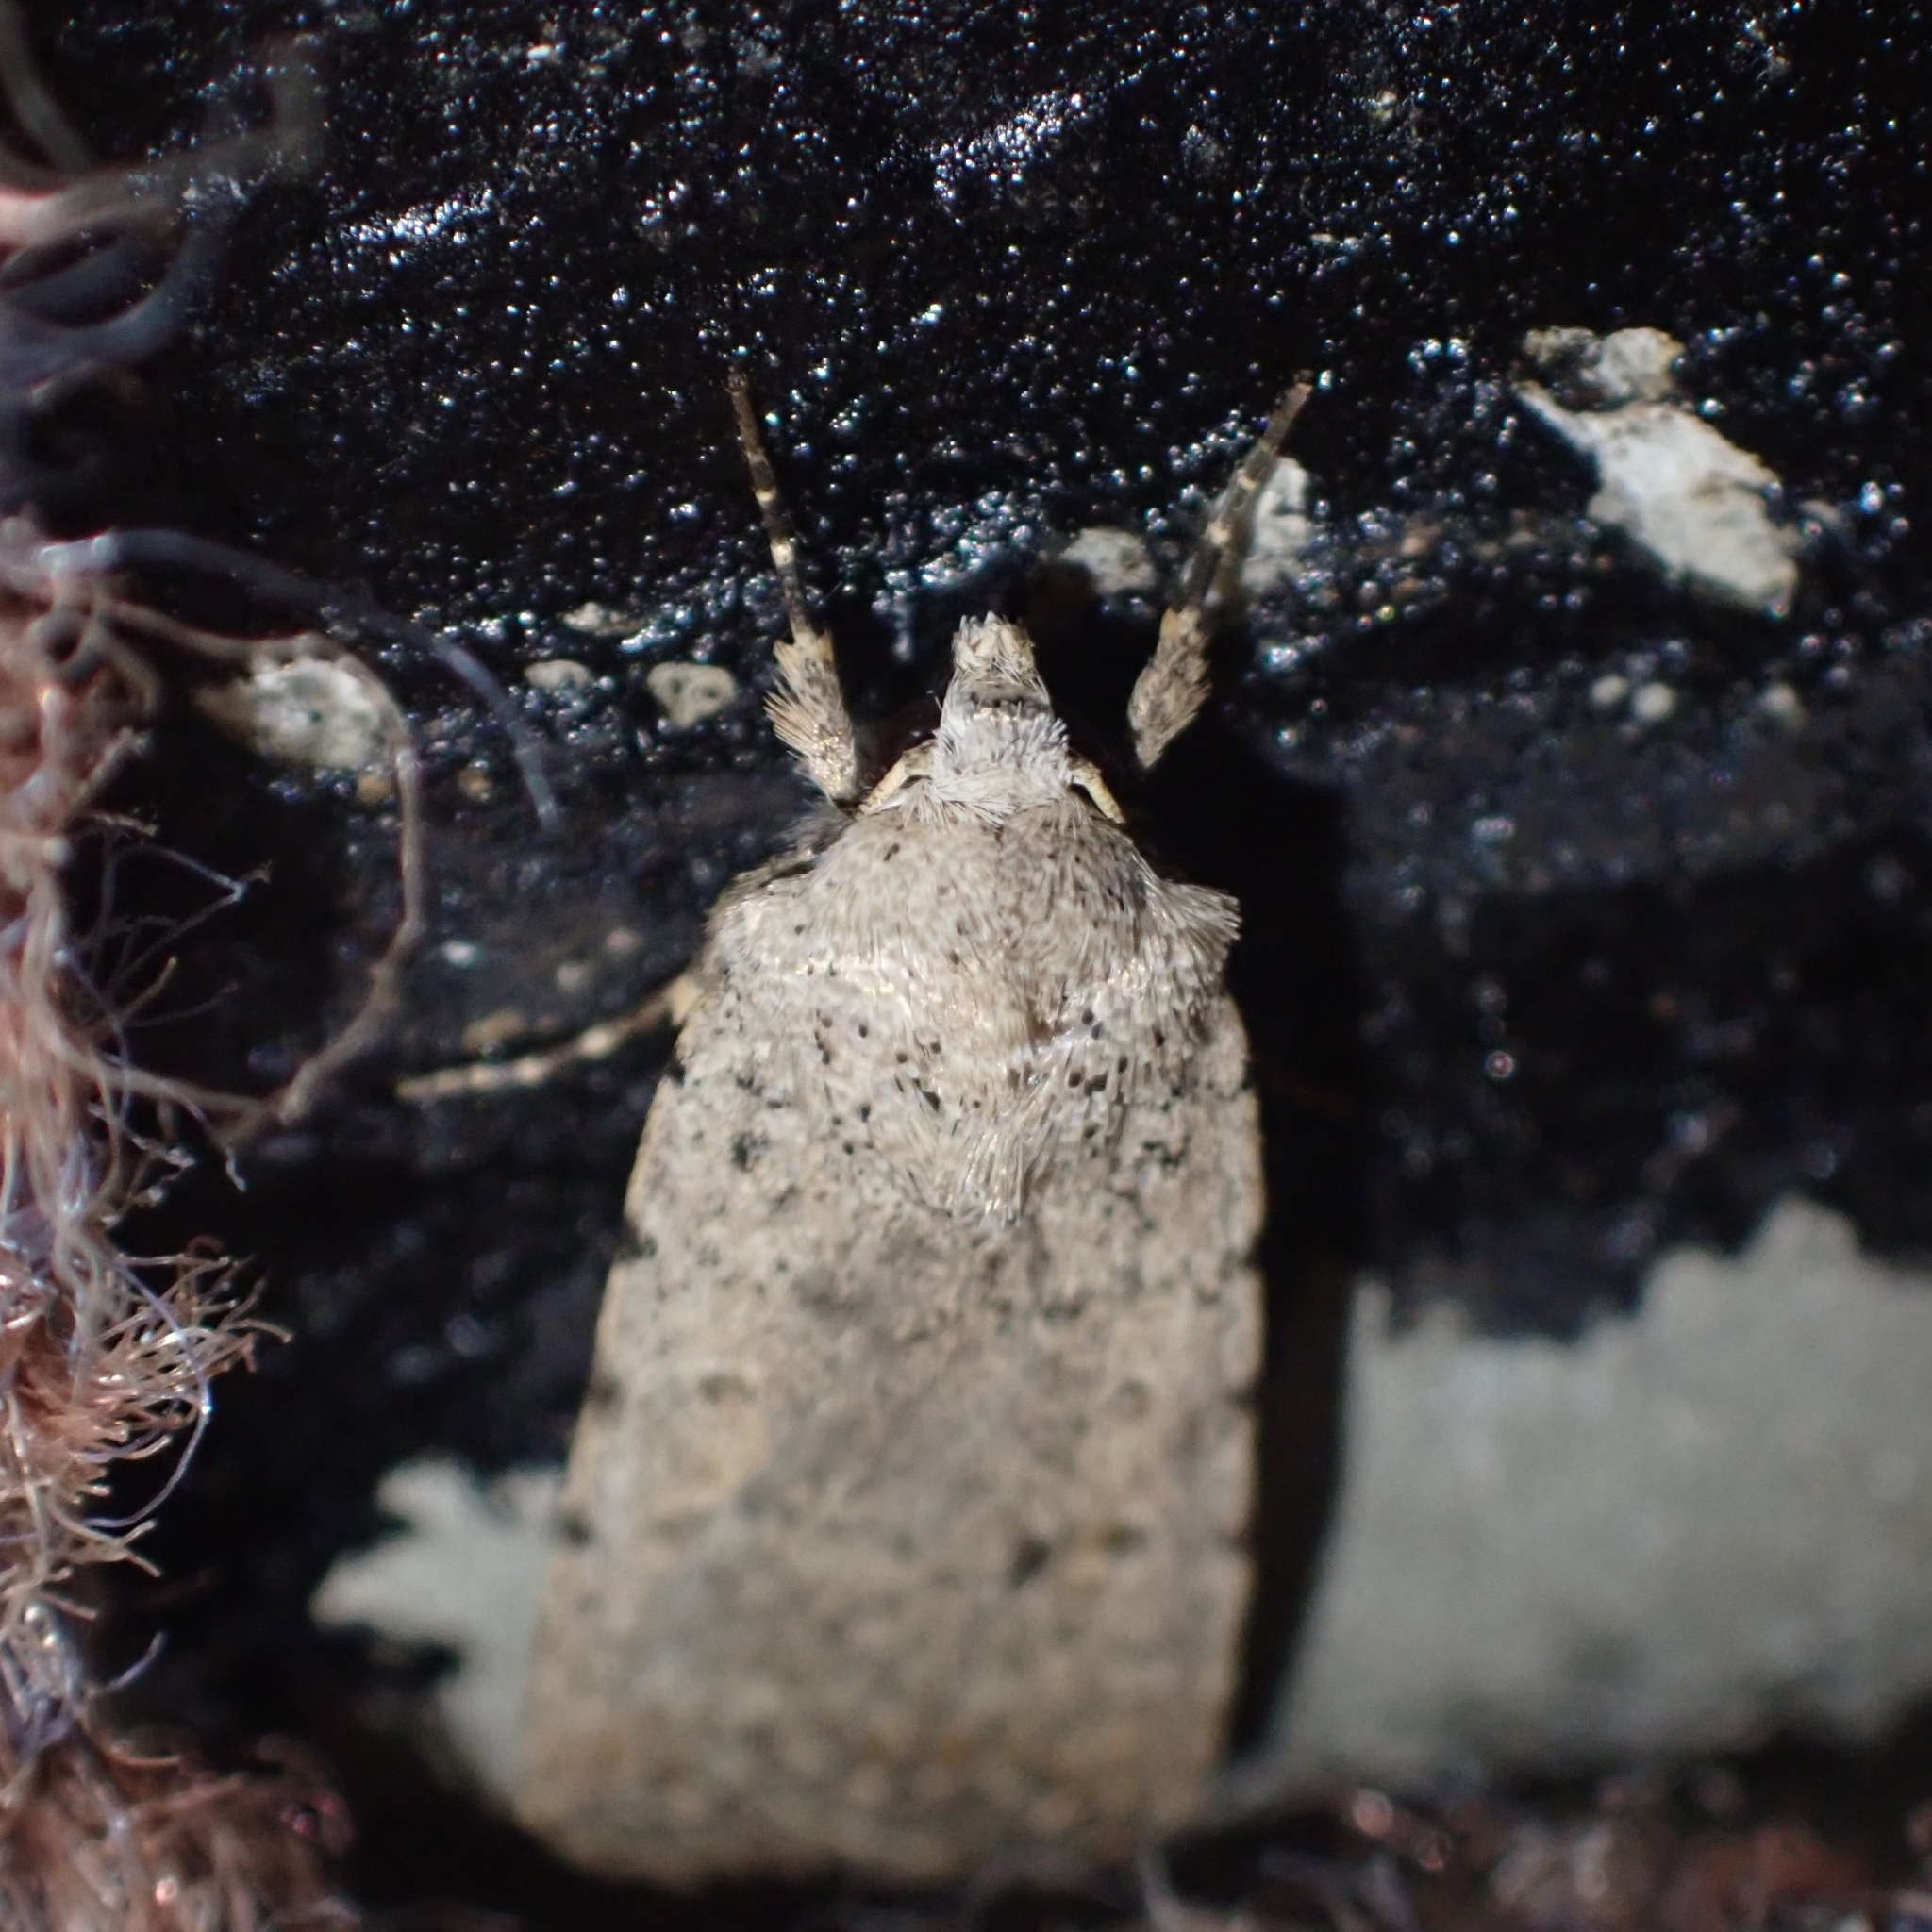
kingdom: Animalia
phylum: Arthropoda
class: Insecta
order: Lepidoptera
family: Noctuidae
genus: Caradrina
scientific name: Caradrina clavipalpis
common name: Pale mottled willow
